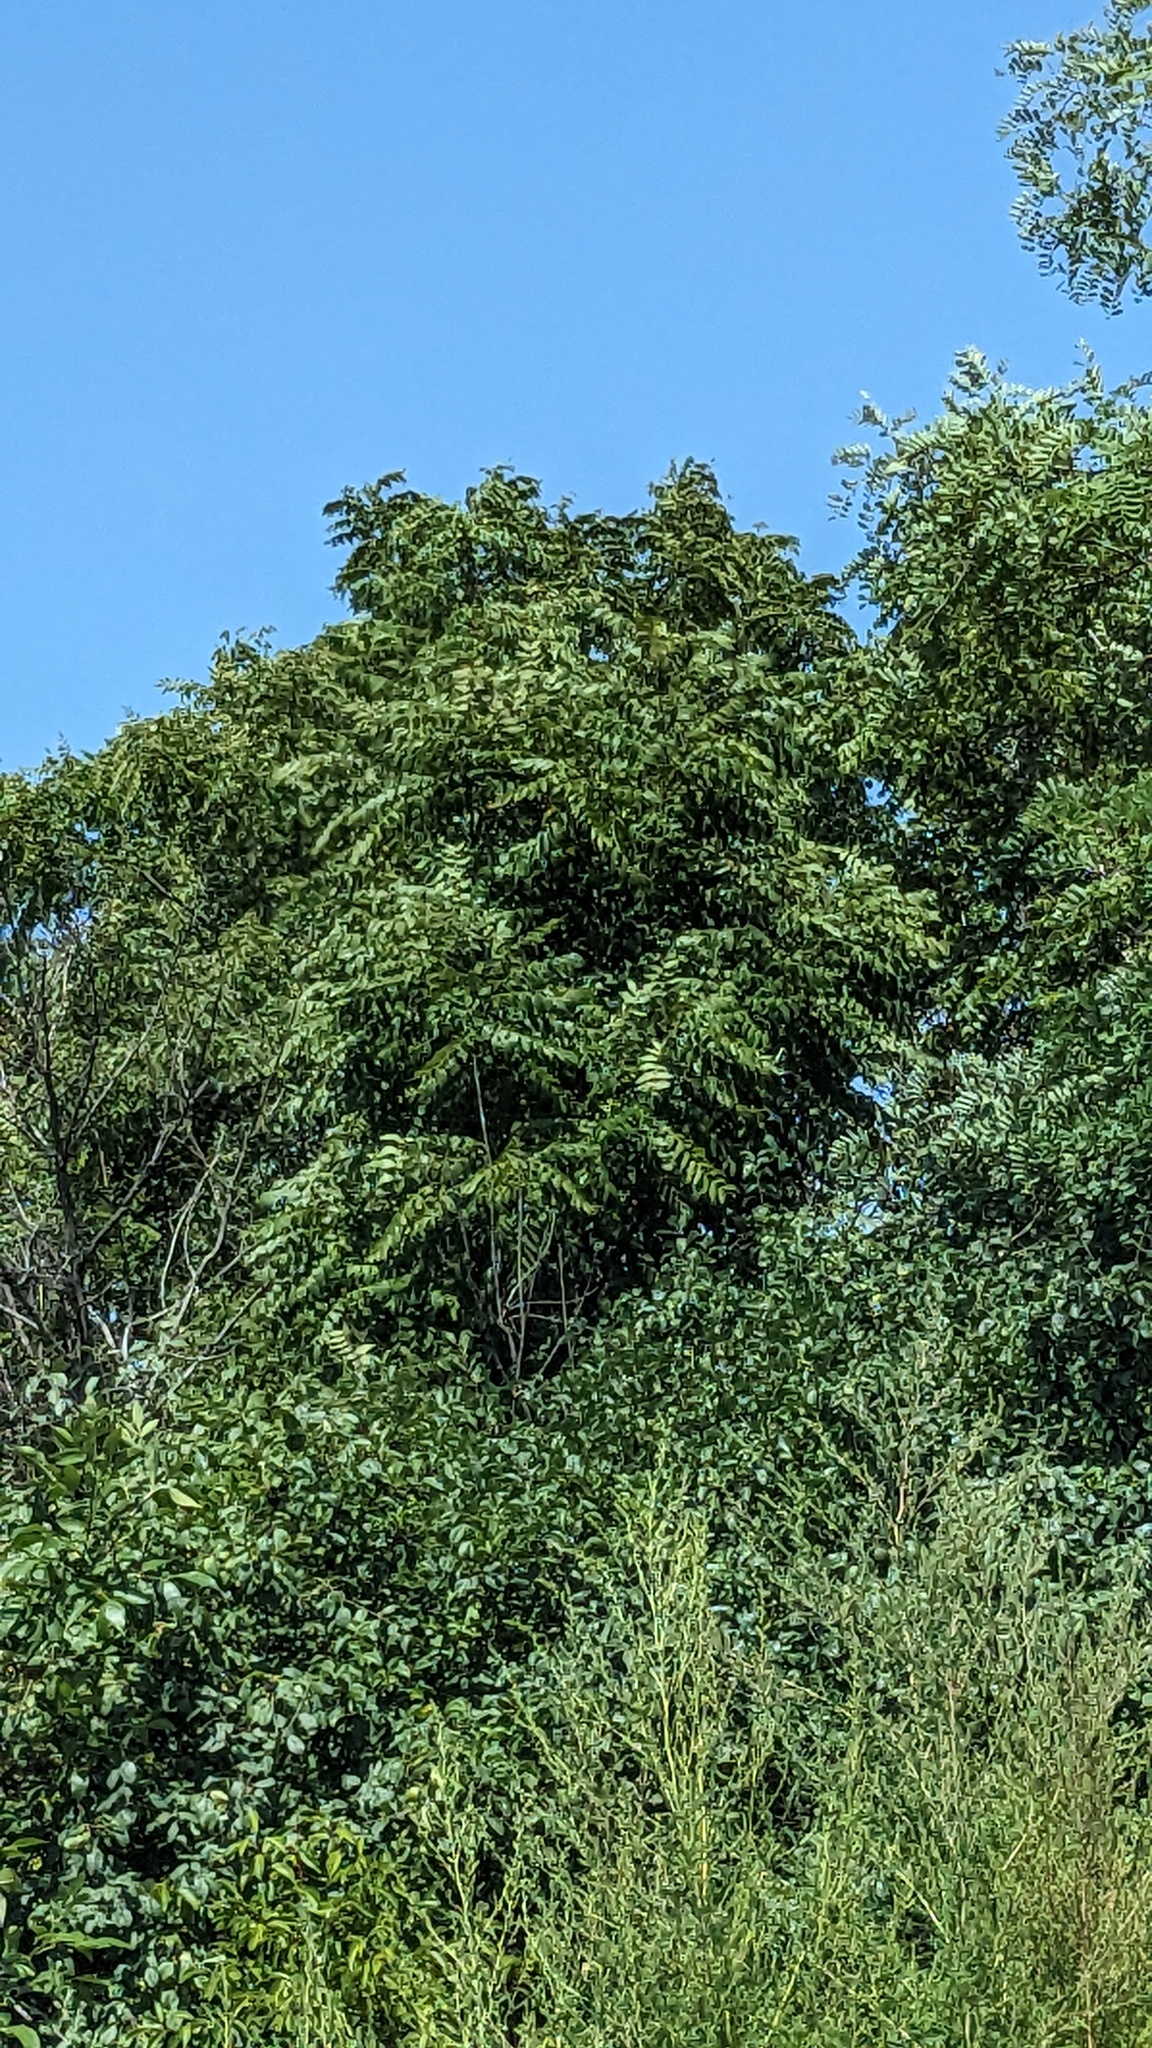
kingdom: Plantae
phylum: Tracheophyta
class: Magnoliopsida
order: Fagales
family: Juglandaceae
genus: Juglans
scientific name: Juglans nigra
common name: Black walnut
